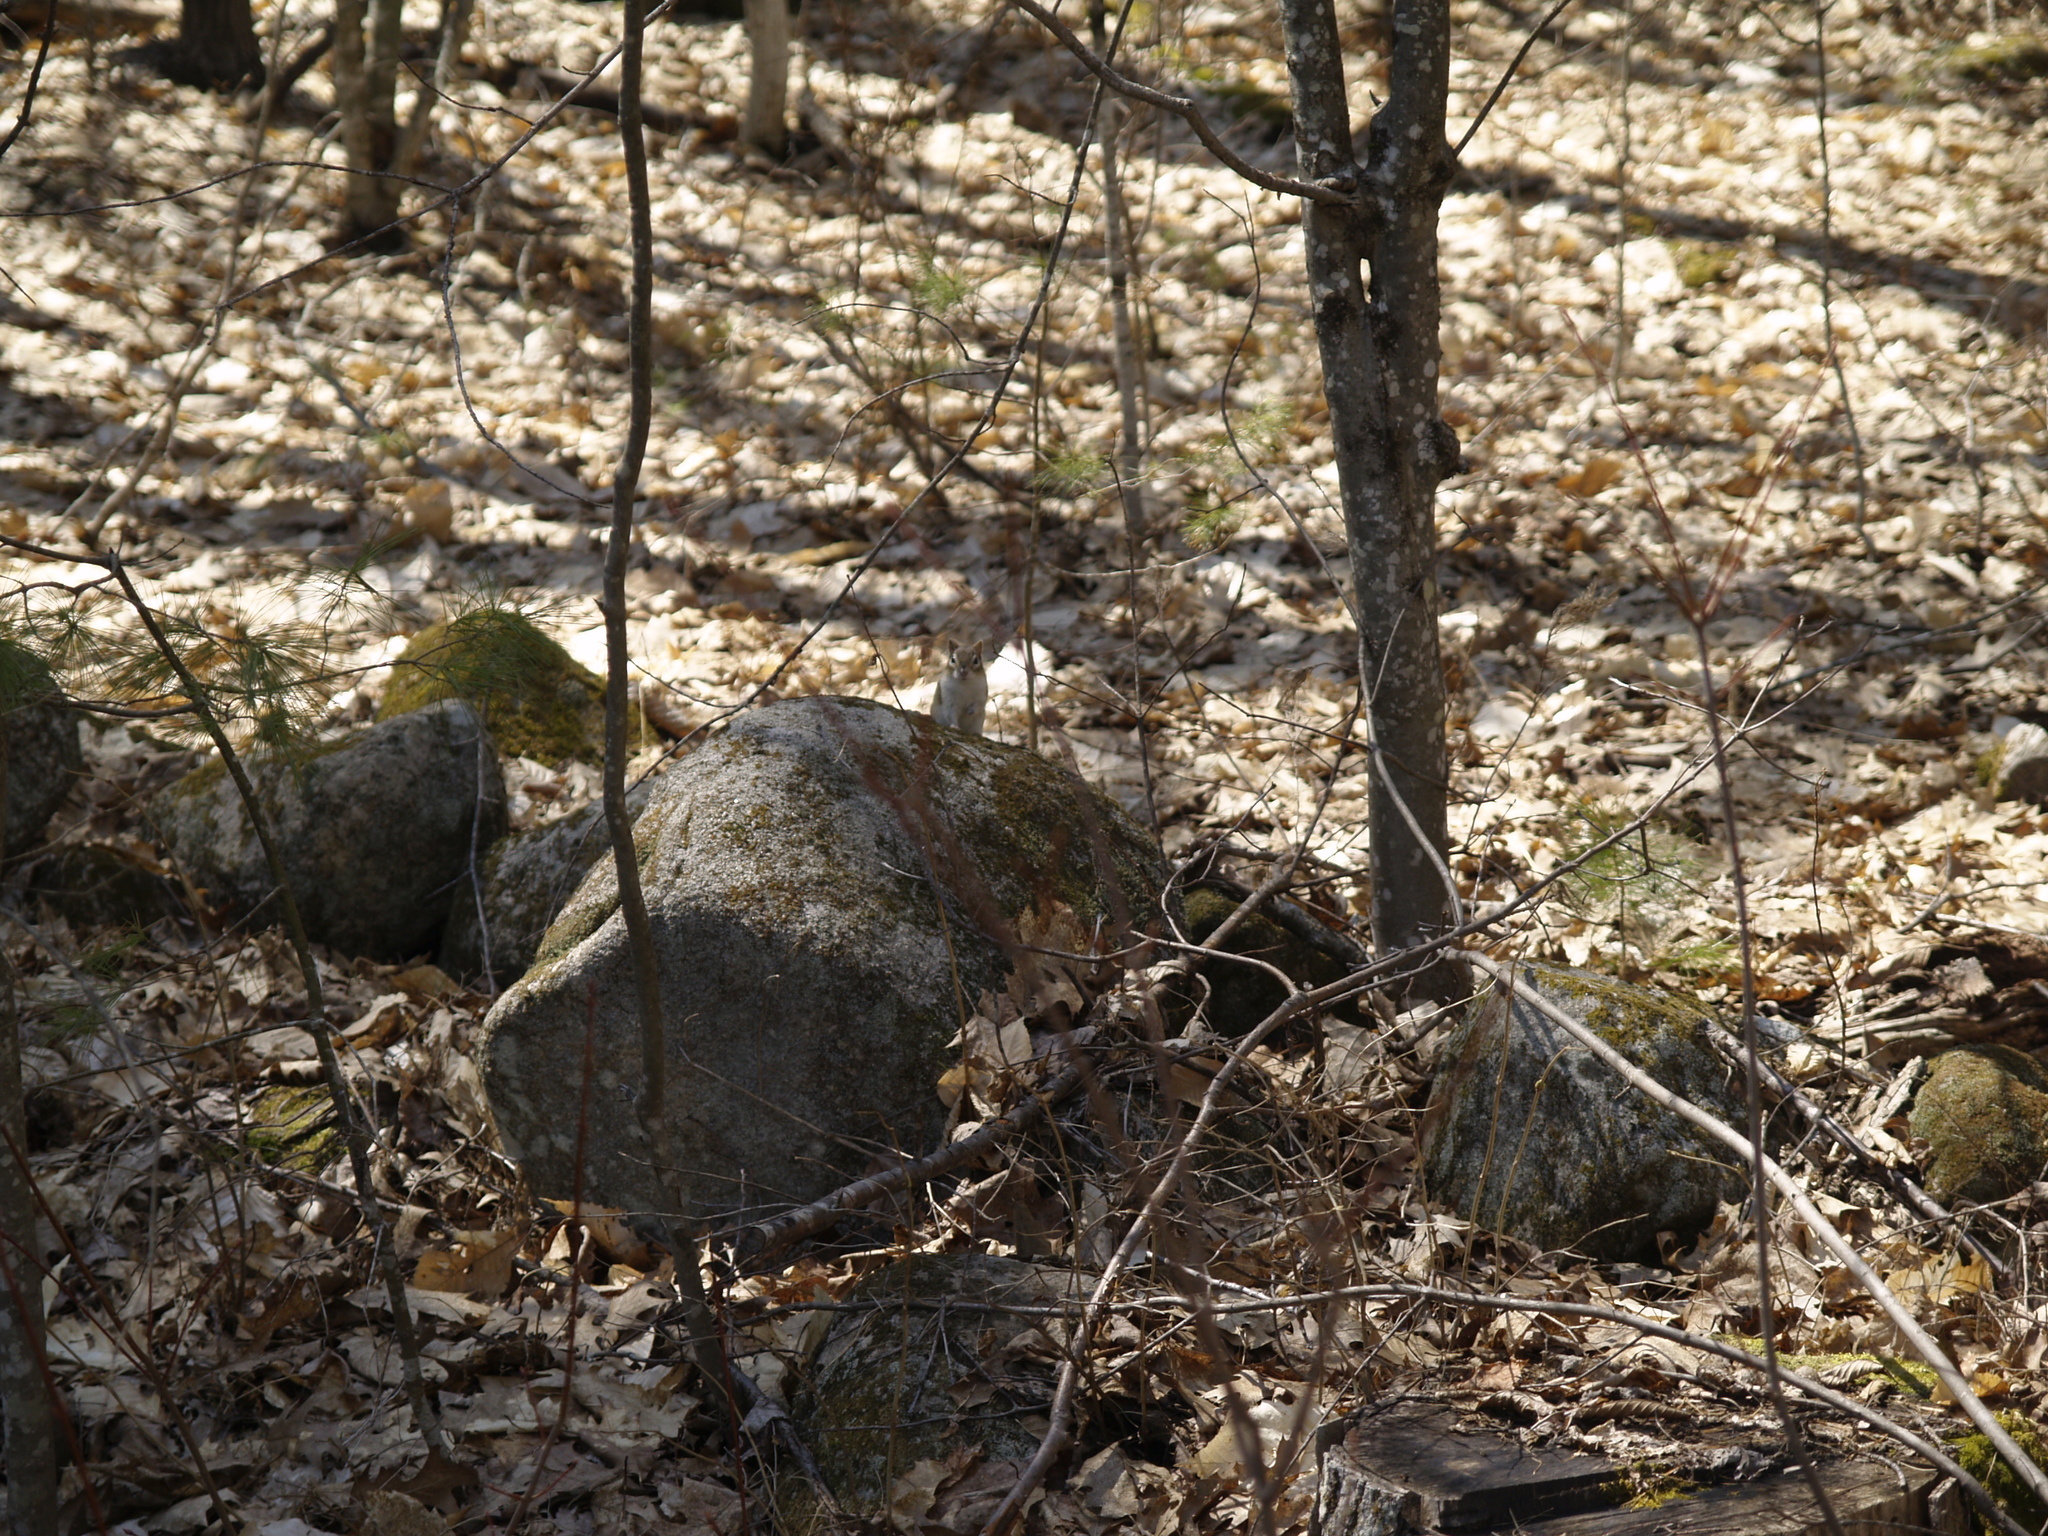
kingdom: Animalia
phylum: Chordata
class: Mammalia
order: Rodentia
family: Sciuridae
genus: Tamias
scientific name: Tamias striatus
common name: Eastern chipmunk
